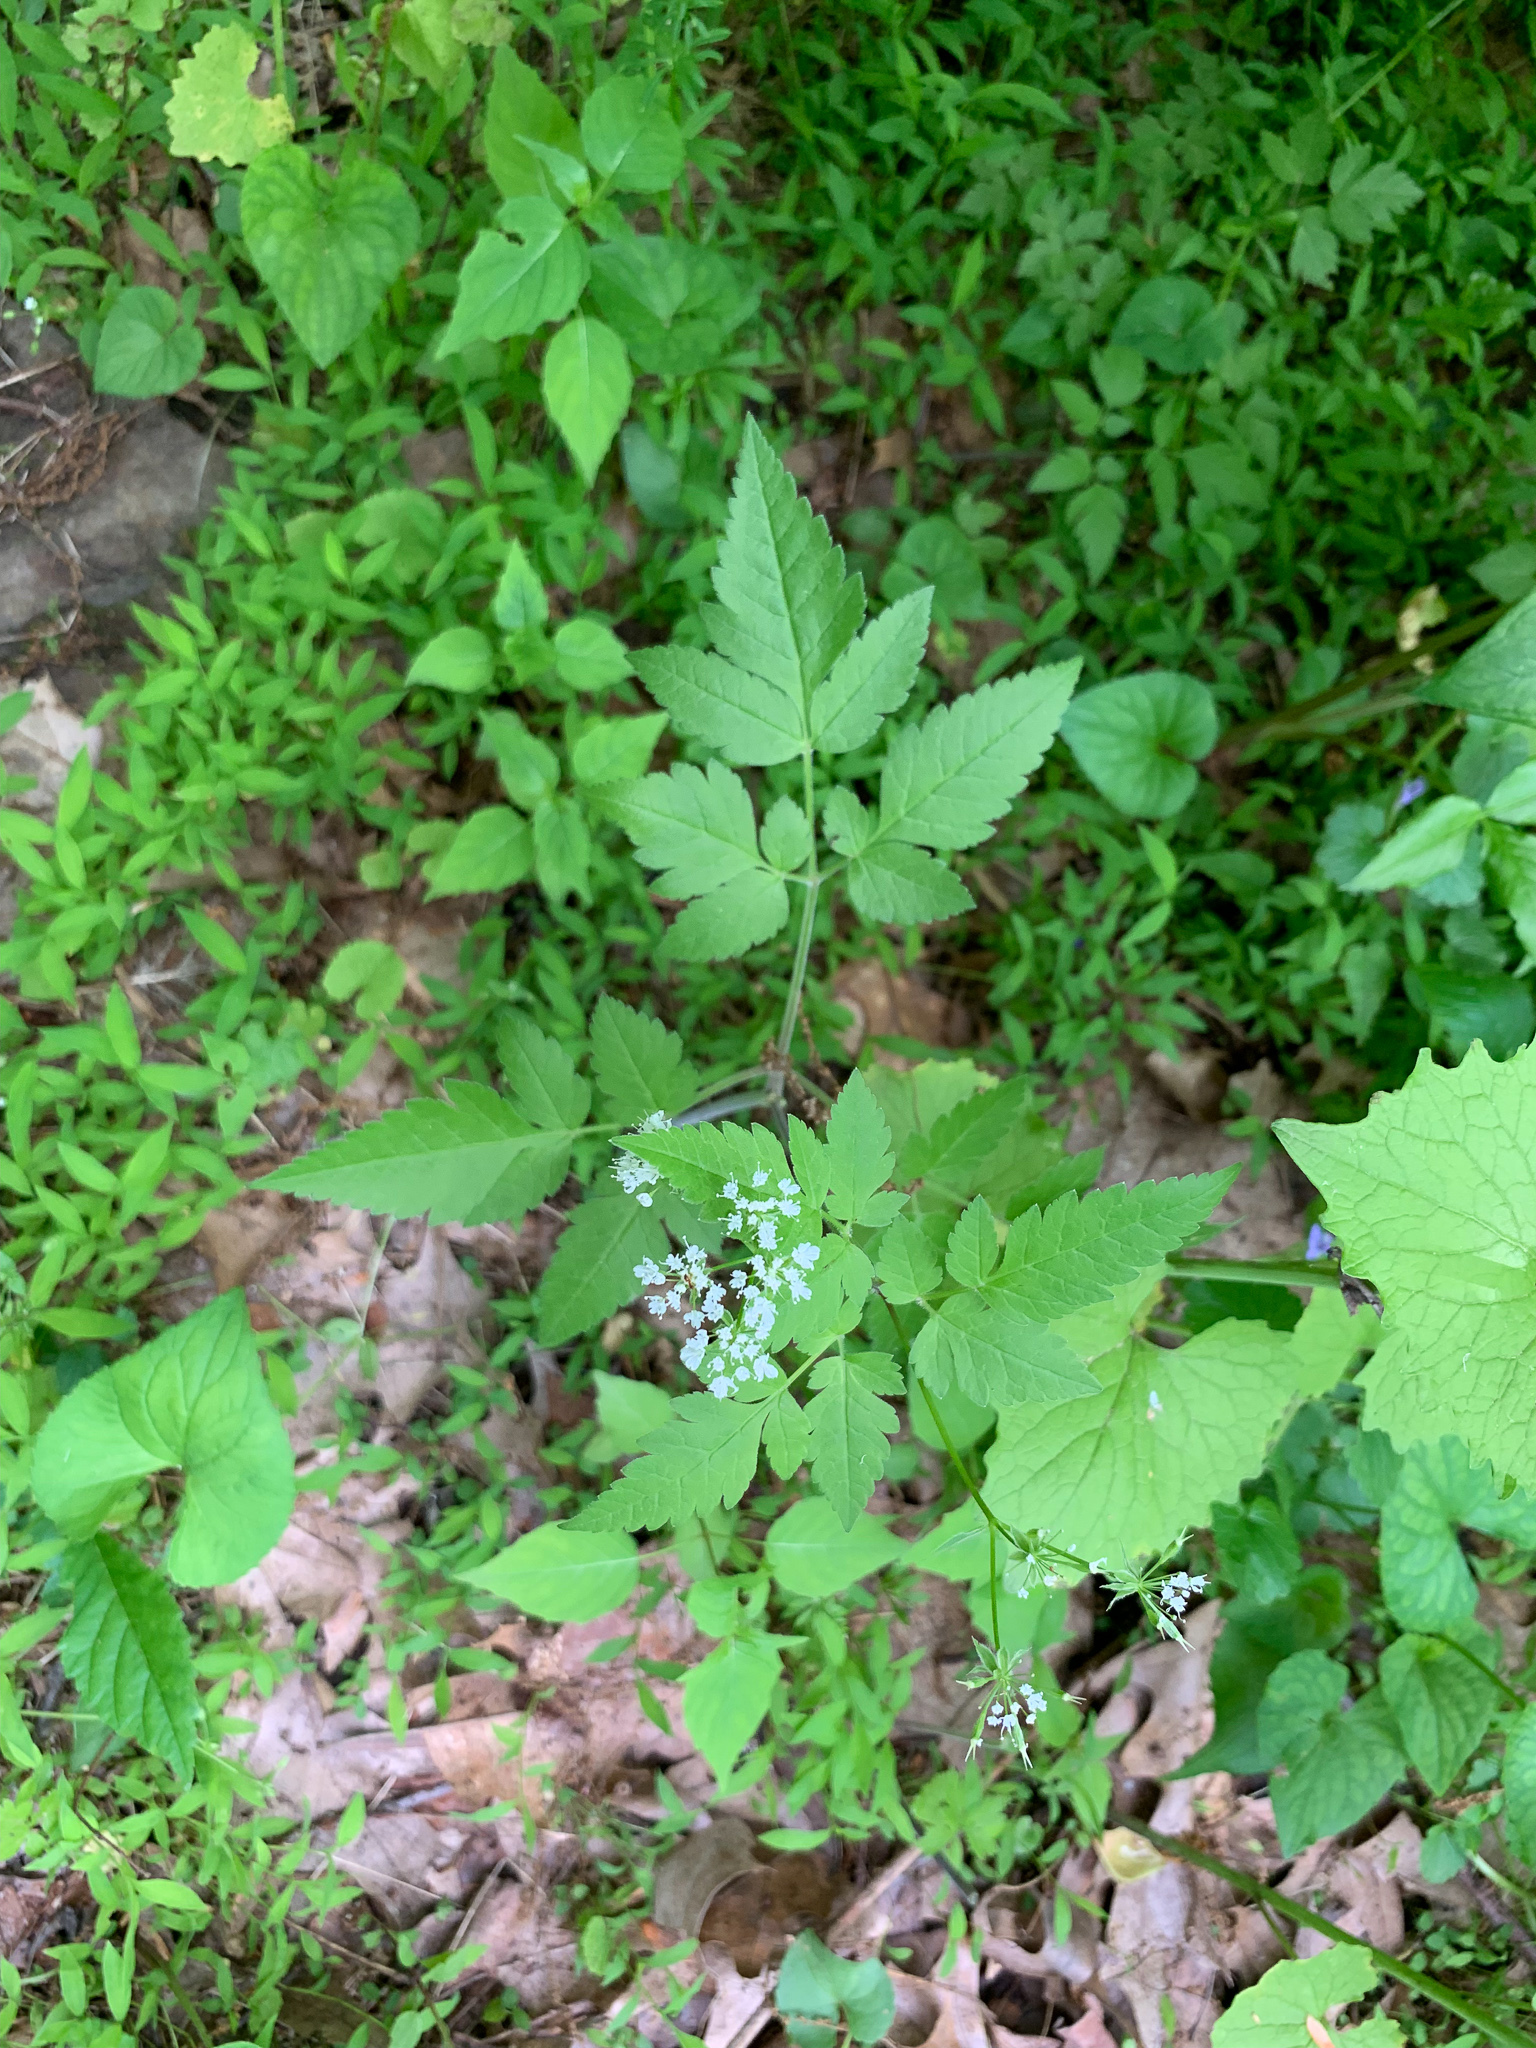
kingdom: Plantae
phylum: Tracheophyta
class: Magnoliopsida
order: Apiales
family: Apiaceae
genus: Osmorhiza
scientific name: Osmorhiza longistylis
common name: Smooth sweet cicely
